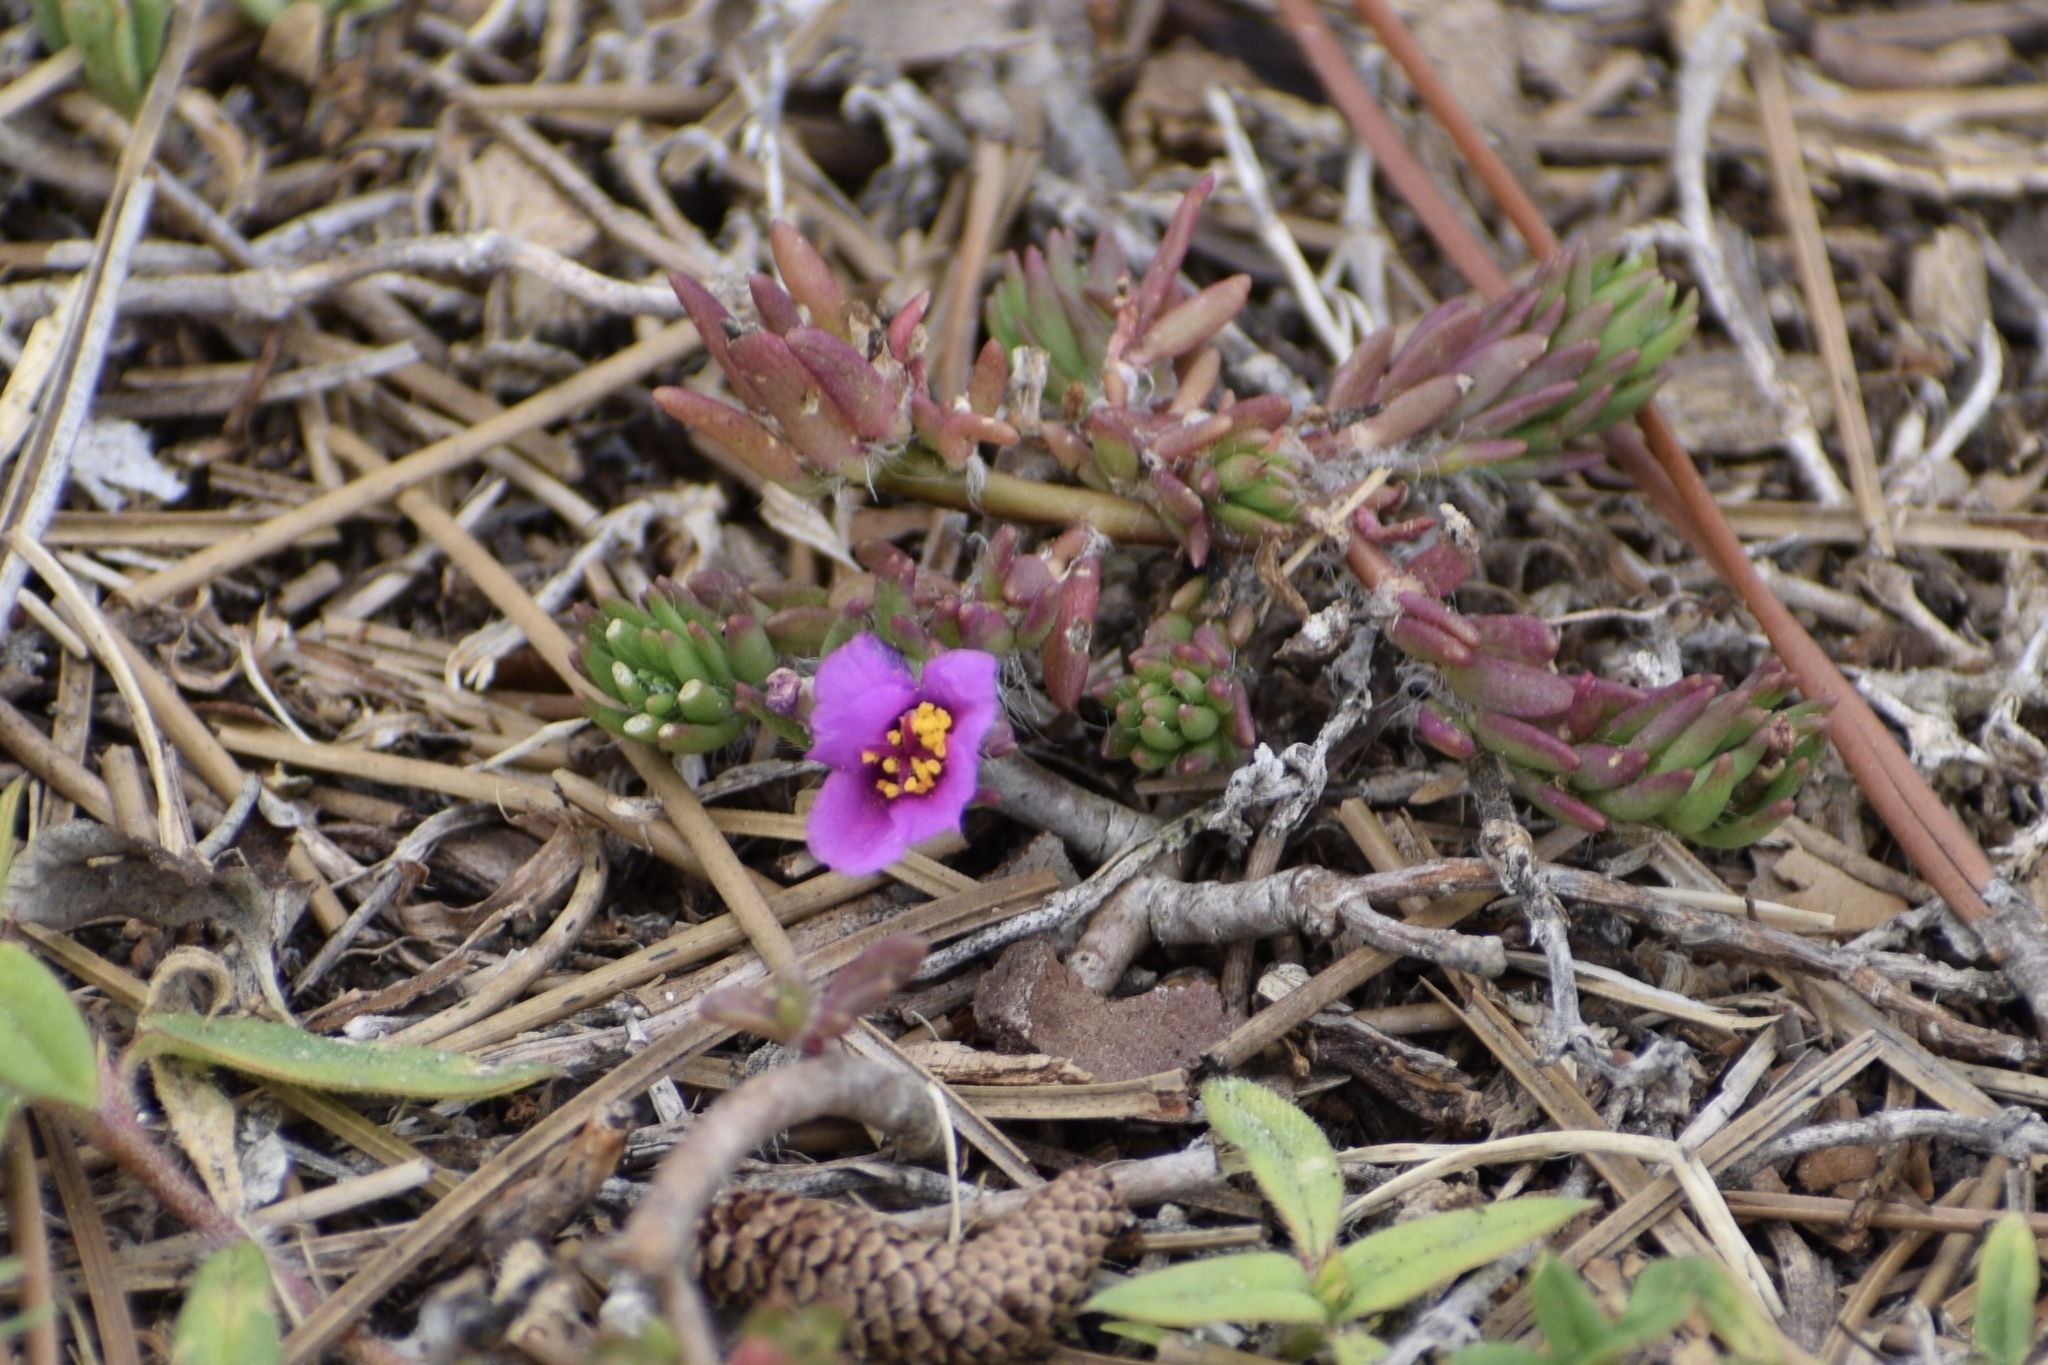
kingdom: Plantae
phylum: Tracheophyta
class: Magnoliopsida
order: Caryophyllales
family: Portulacaceae
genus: Portulaca
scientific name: Portulaca pilosa
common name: Kiss me quick
